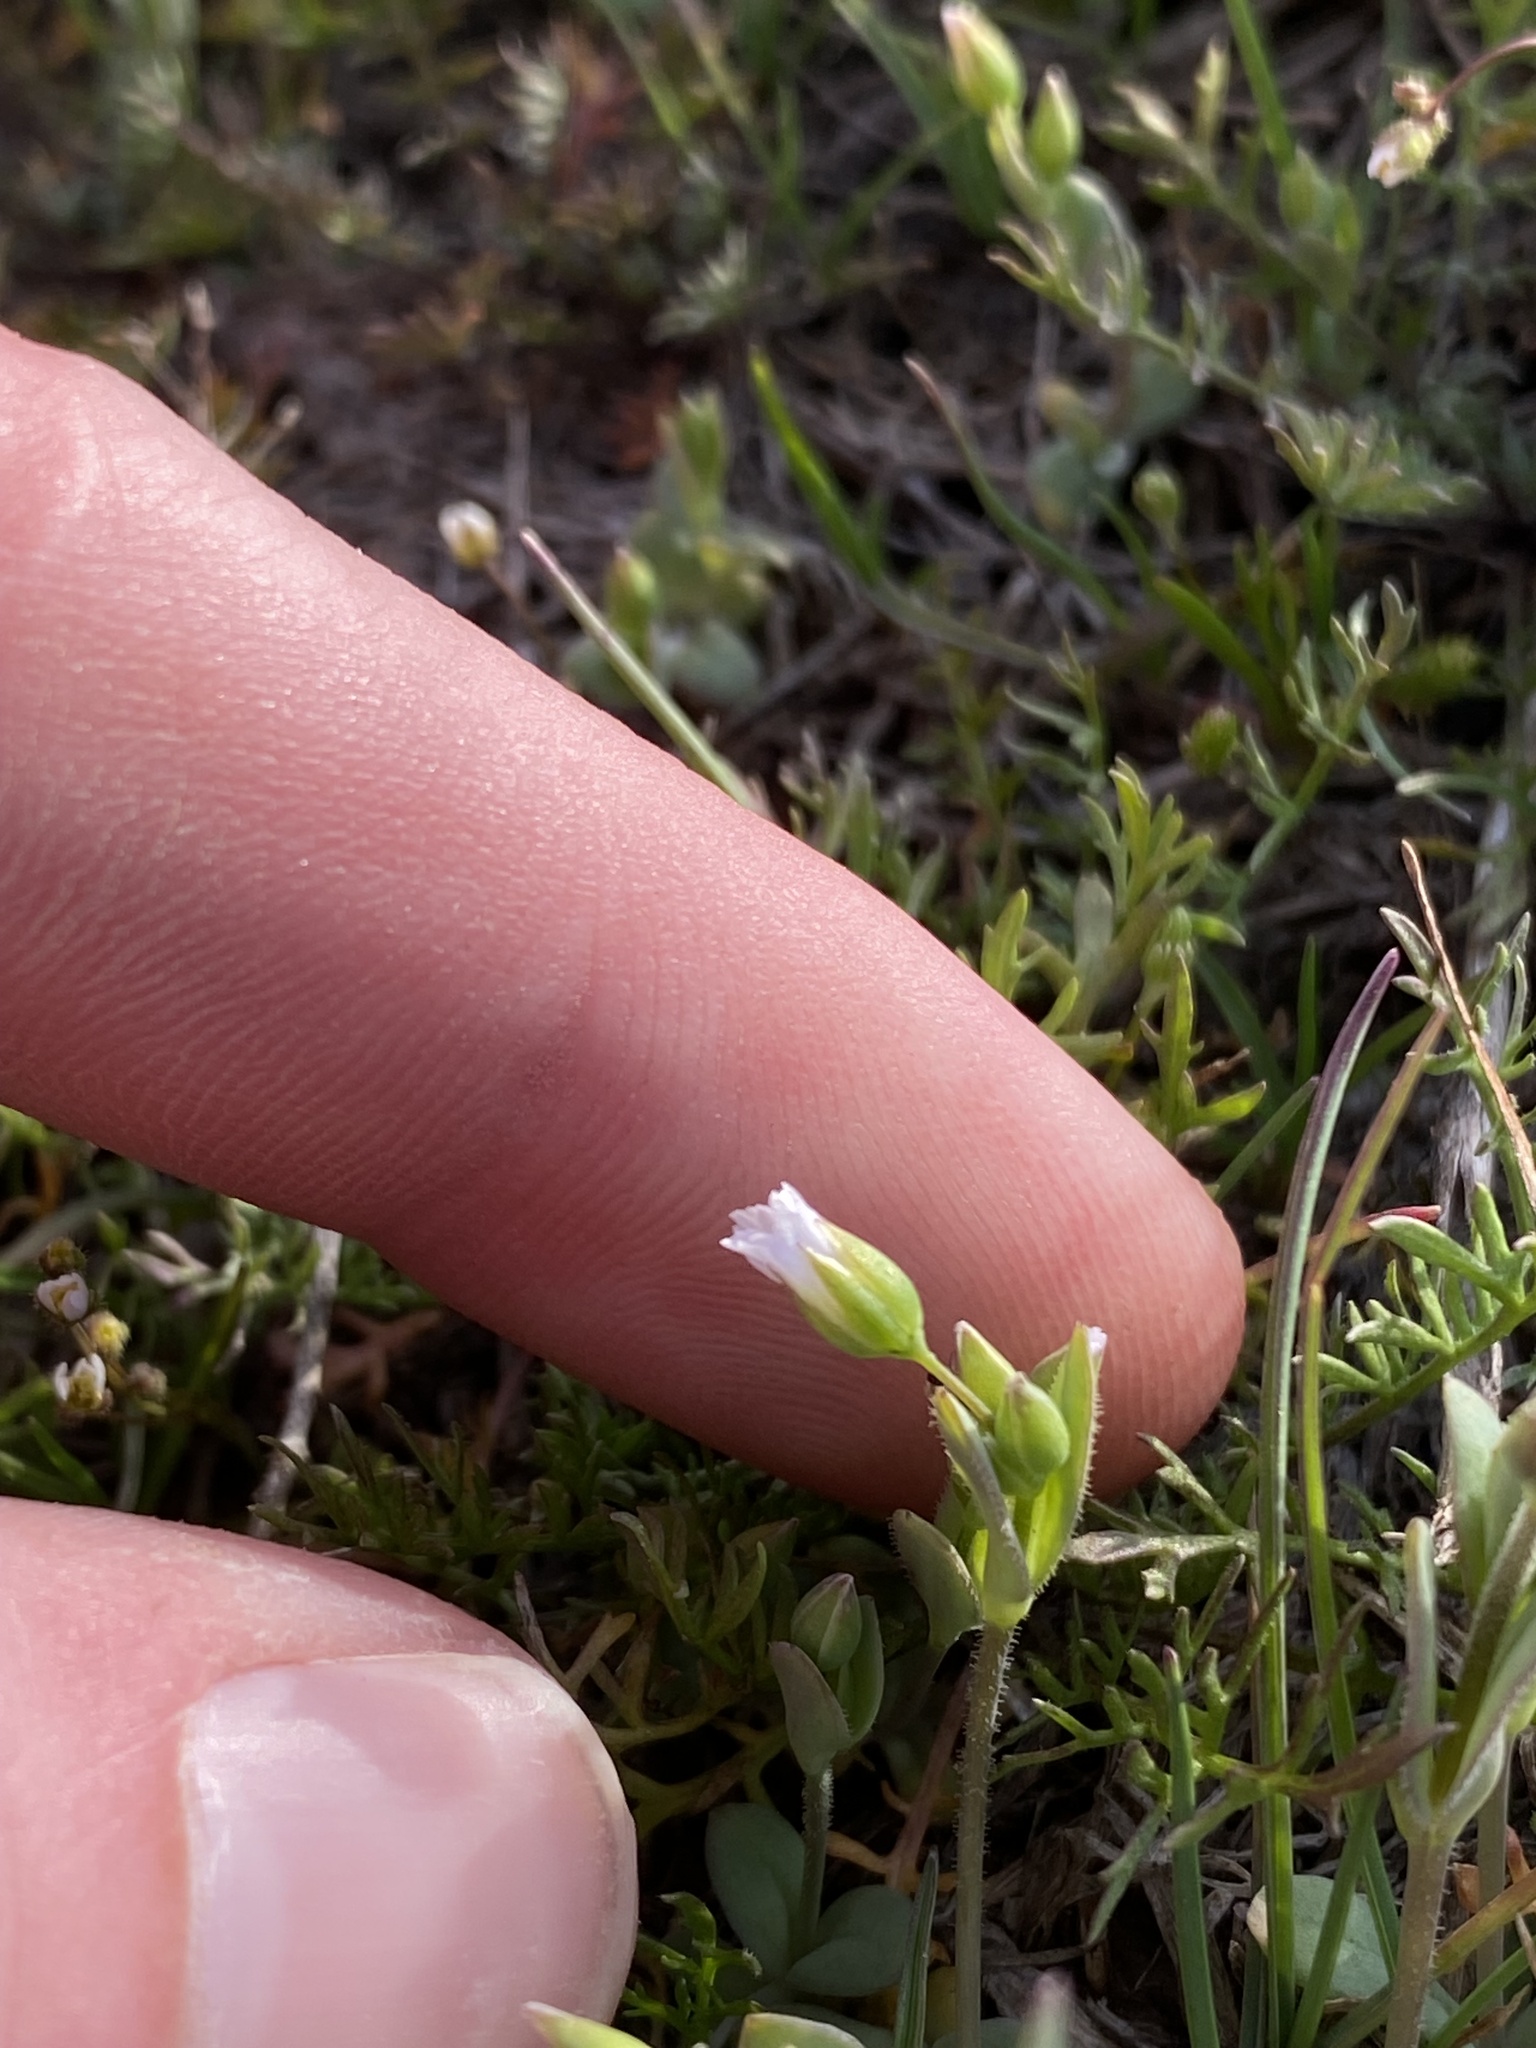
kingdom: Plantae
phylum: Tracheophyta
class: Magnoliopsida
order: Caryophyllales
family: Caryophyllaceae
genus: Holosteum
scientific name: Holosteum umbellatum
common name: Jagged chickweed
